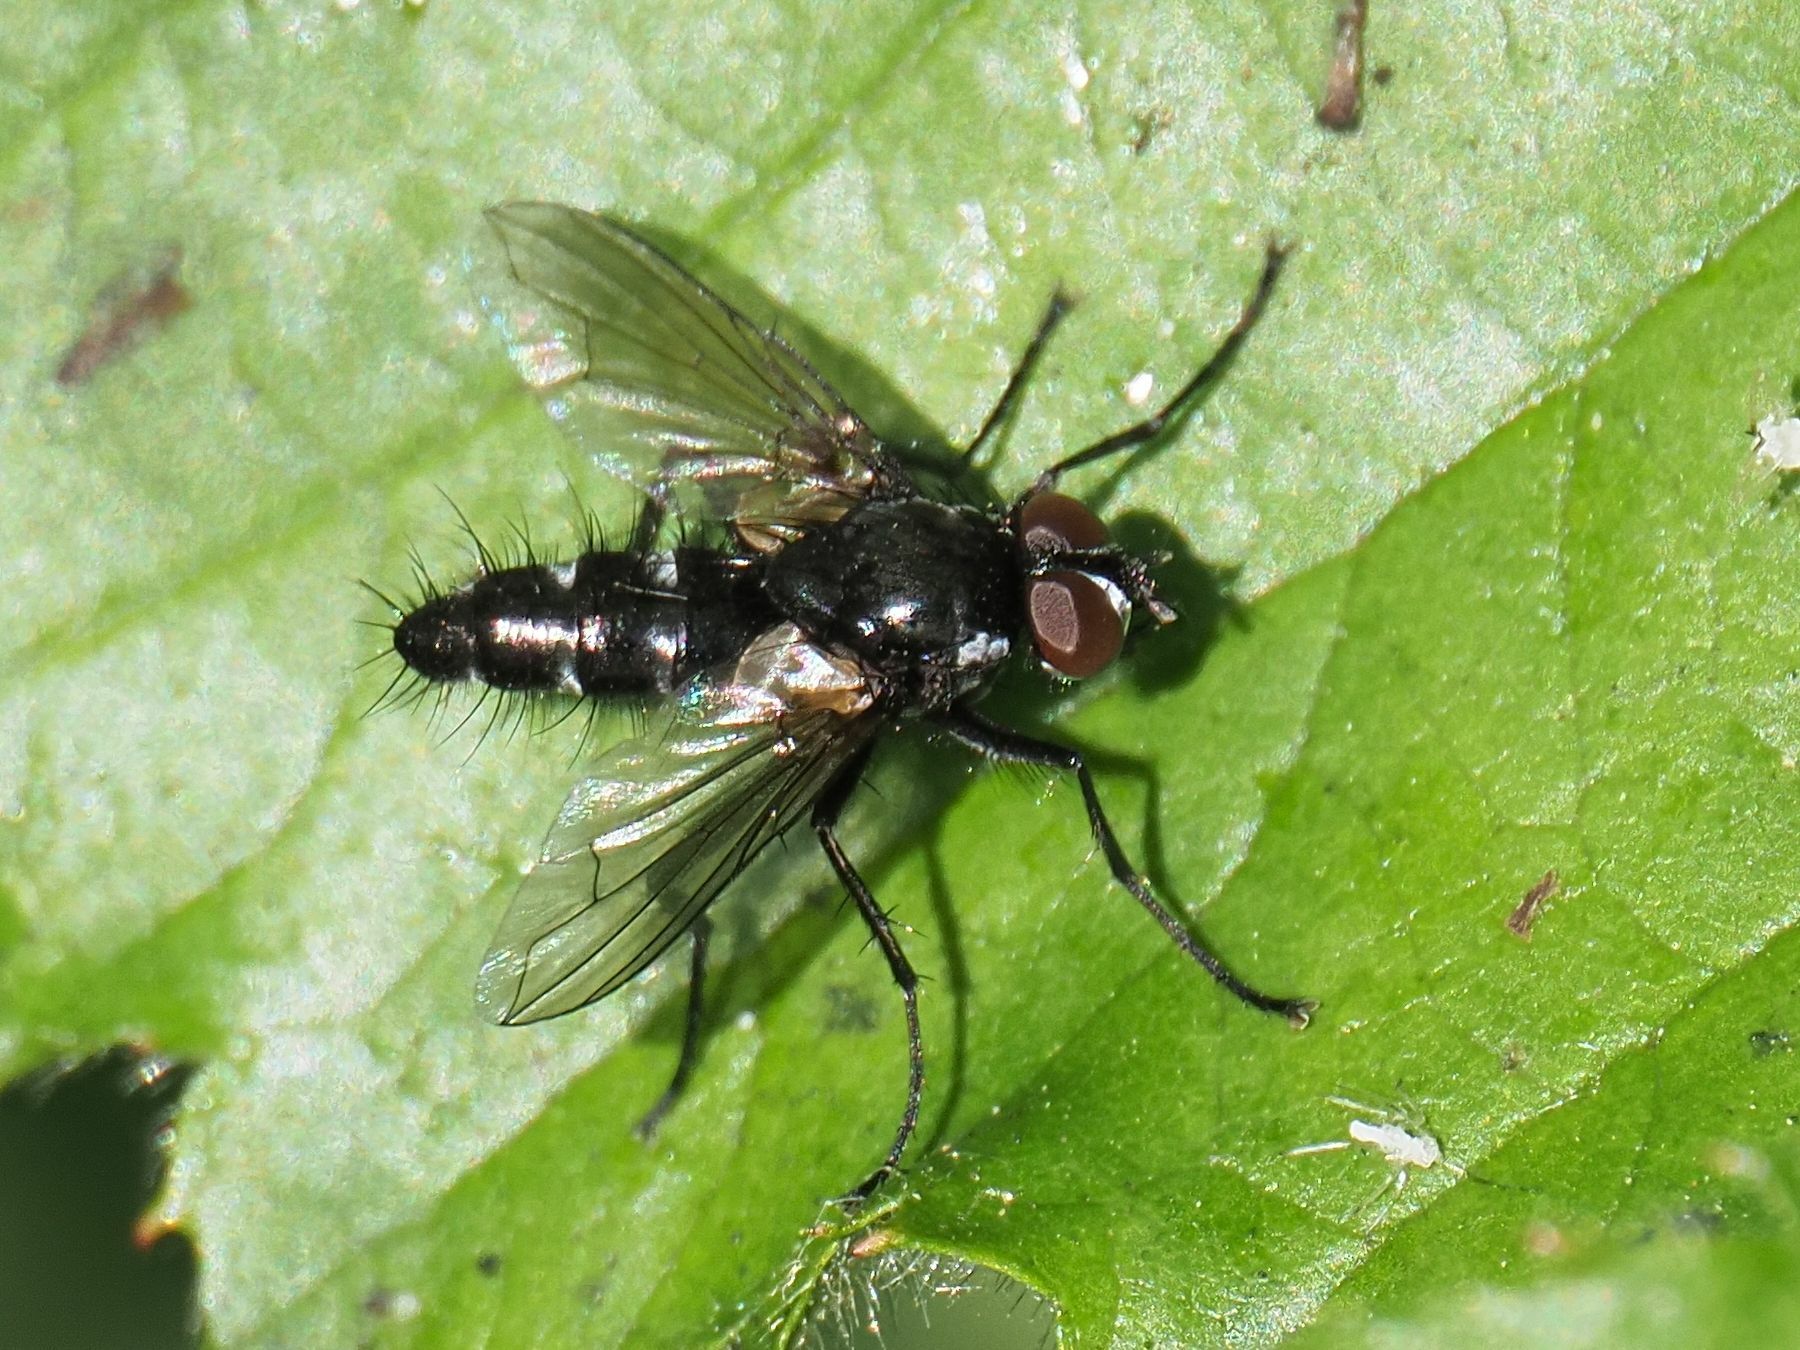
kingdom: Animalia
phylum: Arthropoda
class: Insecta
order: Diptera
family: Tachinidae
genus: Phyllomya
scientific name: Phyllomya volvulus
